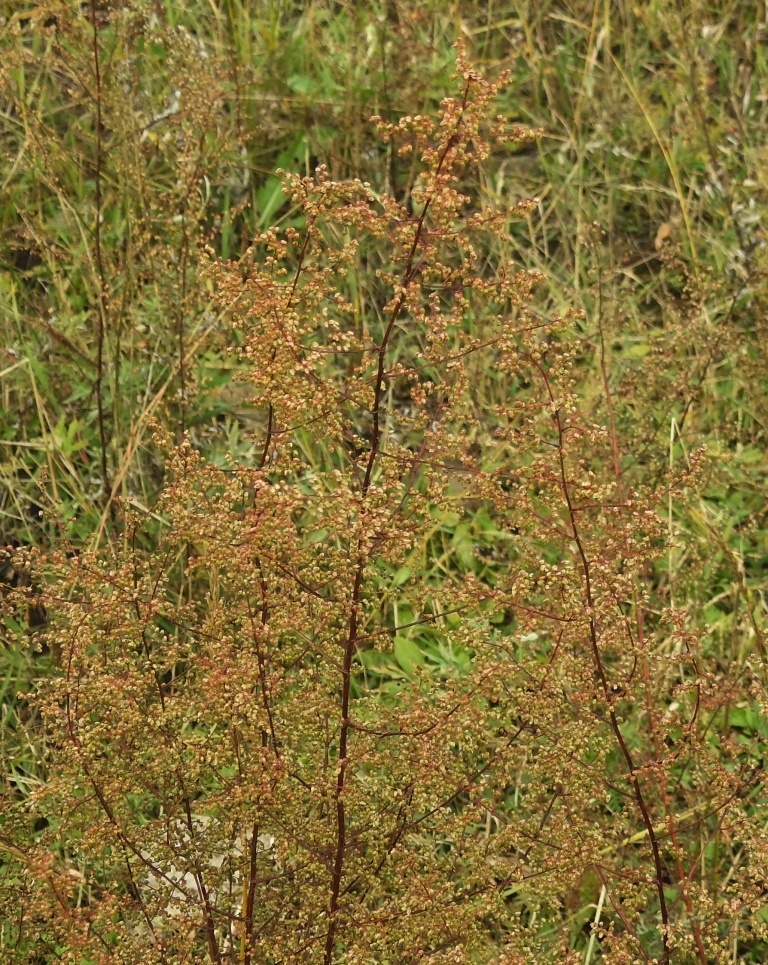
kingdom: Plantae
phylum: Tracheophyta
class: Magnoliopsida
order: Asterales
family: Asteraceae
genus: Artemisia
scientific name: Artemisia scoparia
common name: Redstem wormwood
